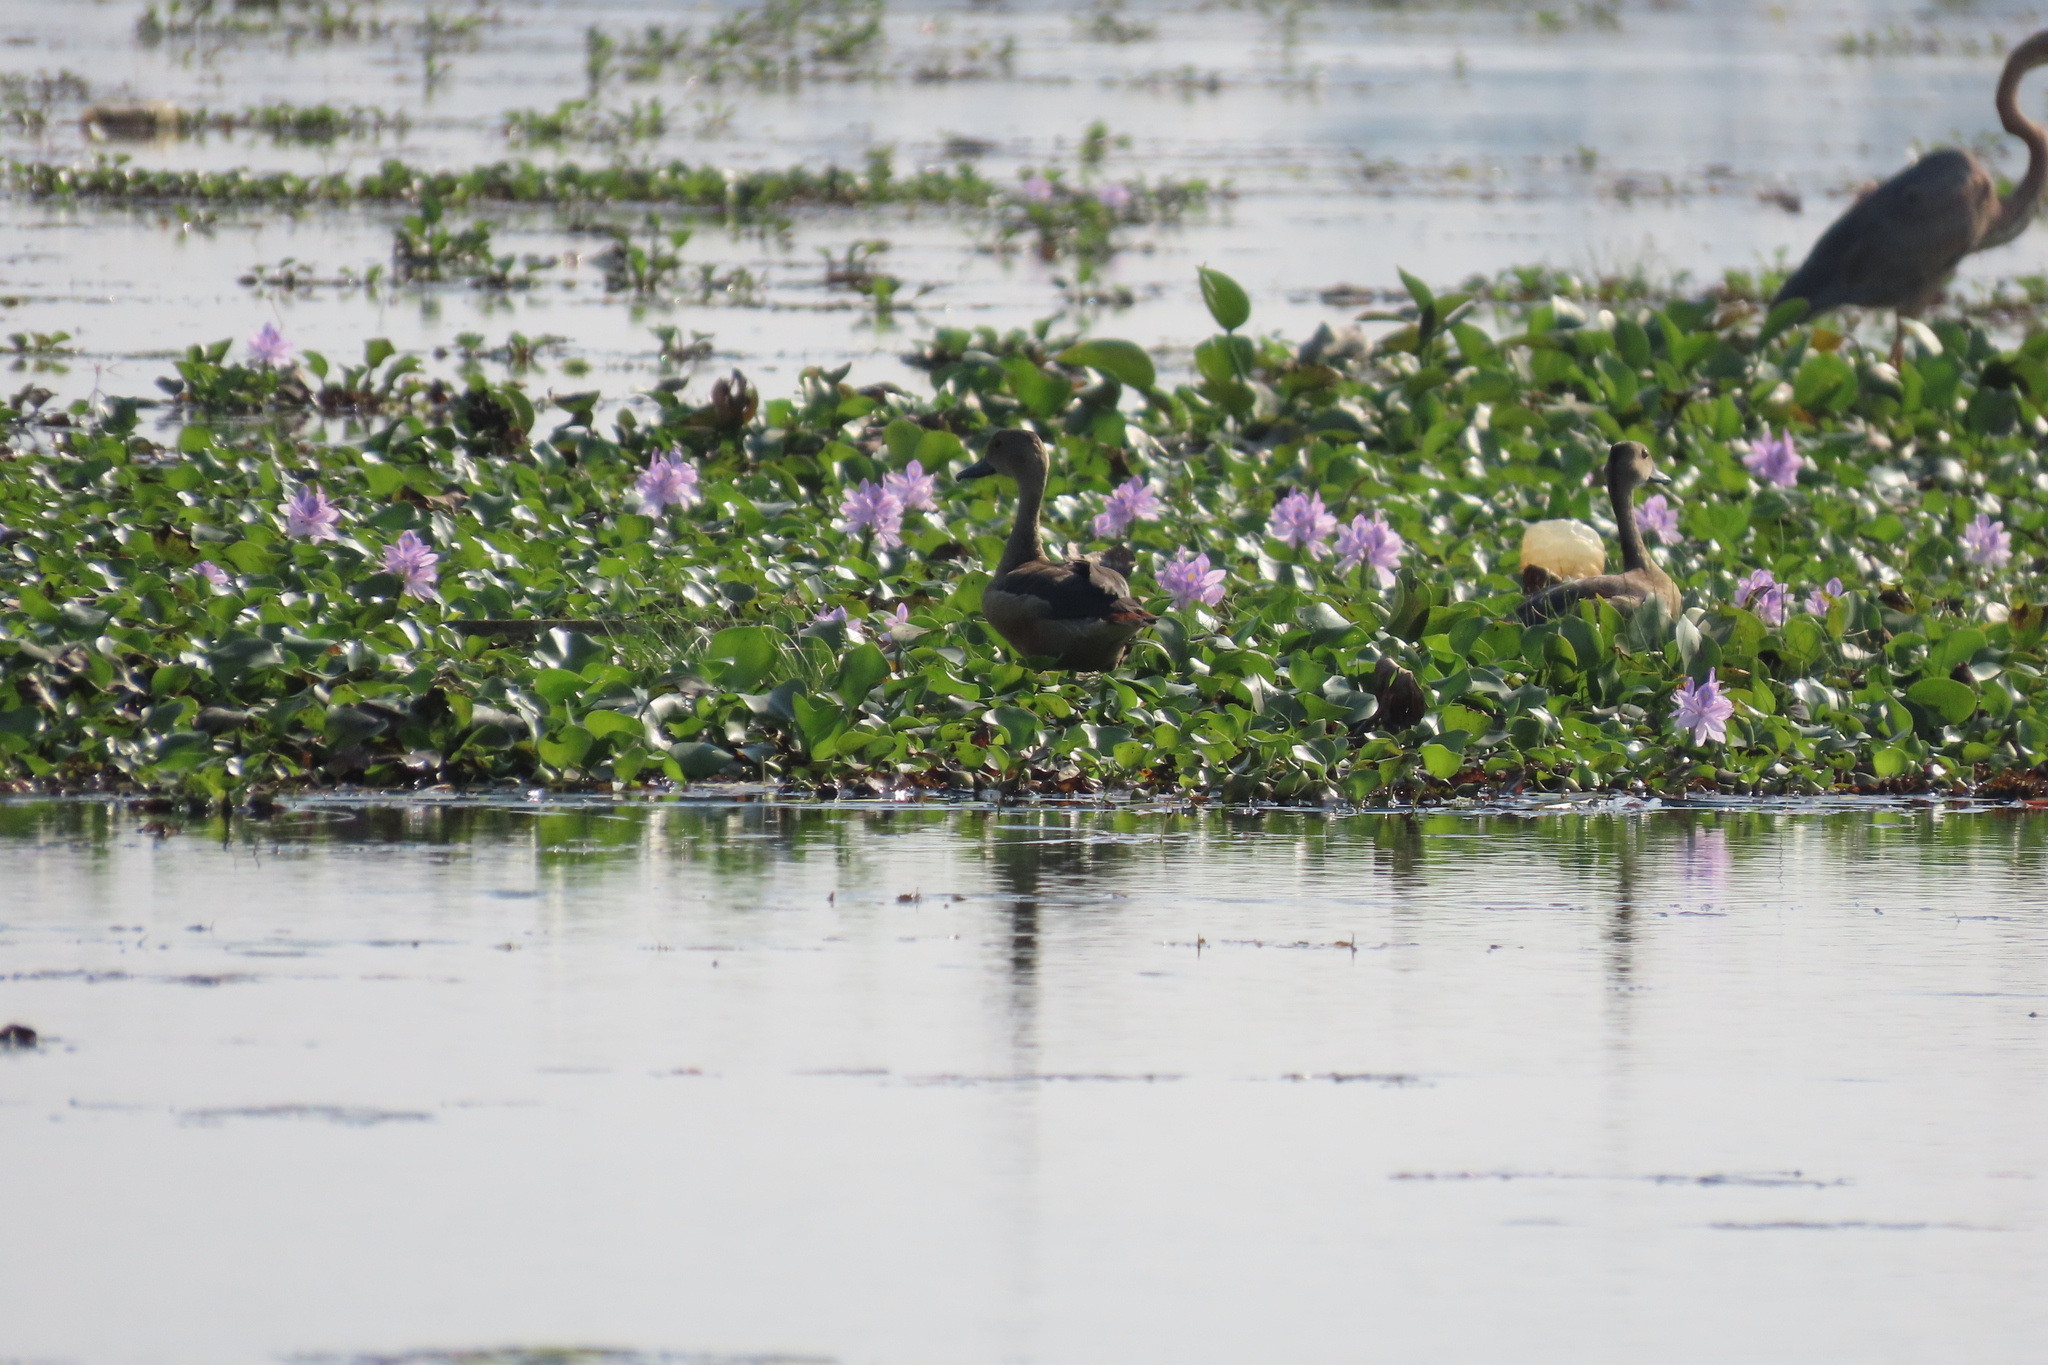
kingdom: Animalia
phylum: Chordata
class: Aves
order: Anseriformes
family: Anatidae
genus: Dendrocygna
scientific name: Dendrocygna javanica
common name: Lesser whistling-duck
